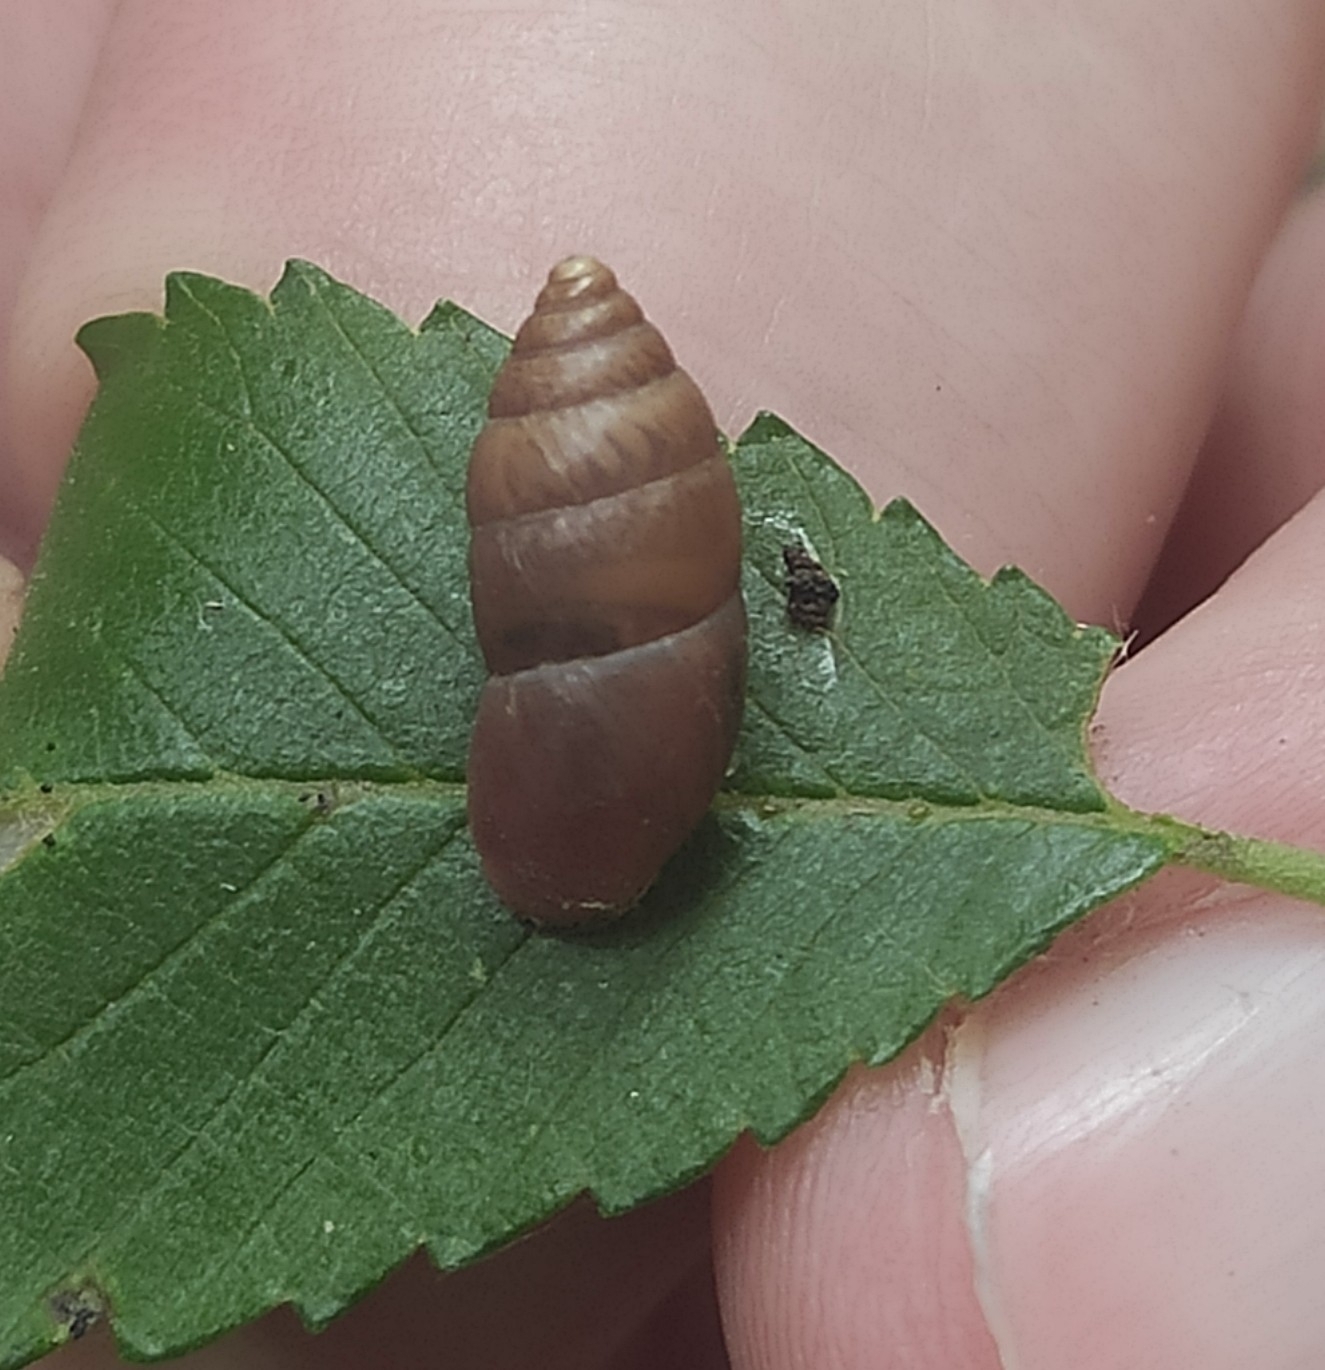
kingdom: Animalia
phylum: Mollusca
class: Gastropoda
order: Stylommatophora
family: Enidae
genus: Chondrula
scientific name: Chondrula tridens
